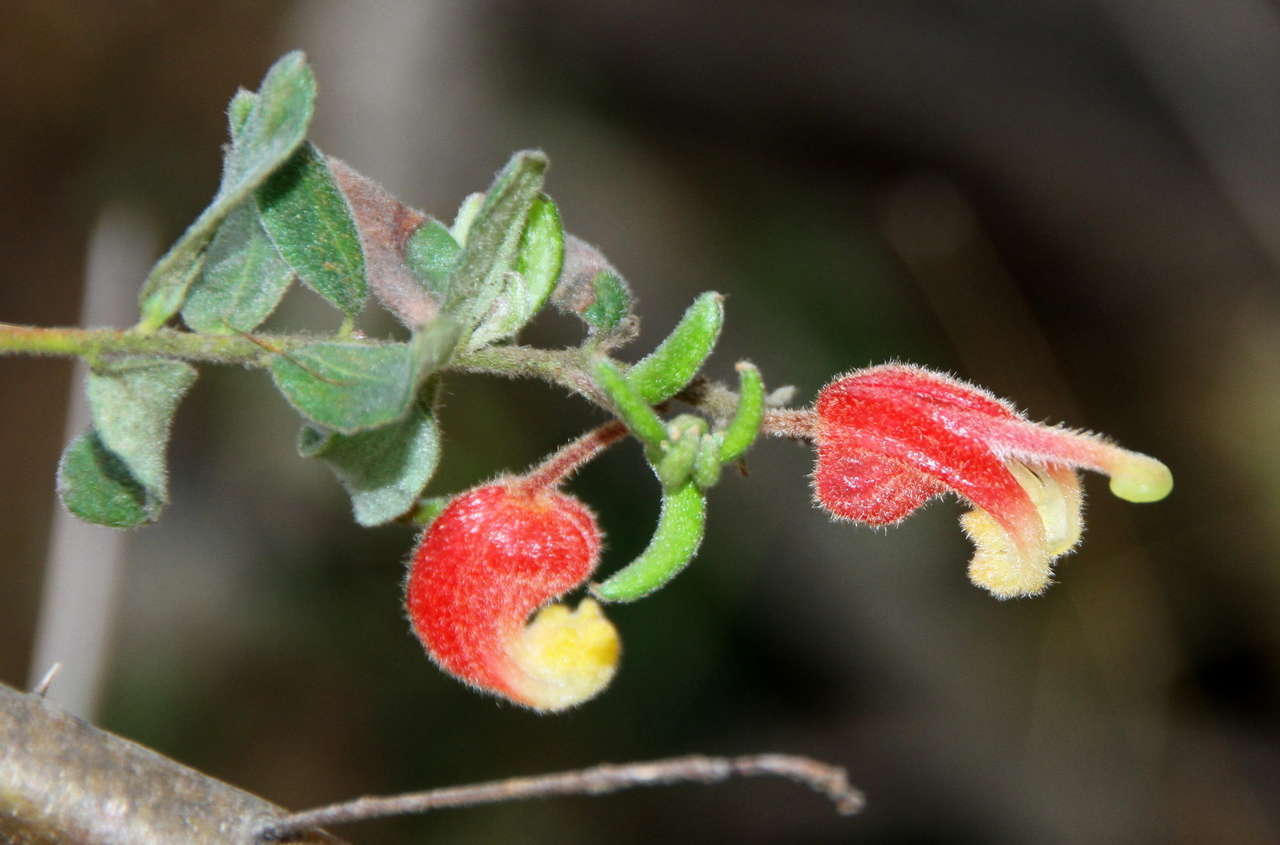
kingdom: Plantae
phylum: Tracheophyta
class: Magnoliopsida
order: Proteales
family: Proteaceae
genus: Grevillea
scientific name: Grevillea alpina
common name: Catclaws grevillea
